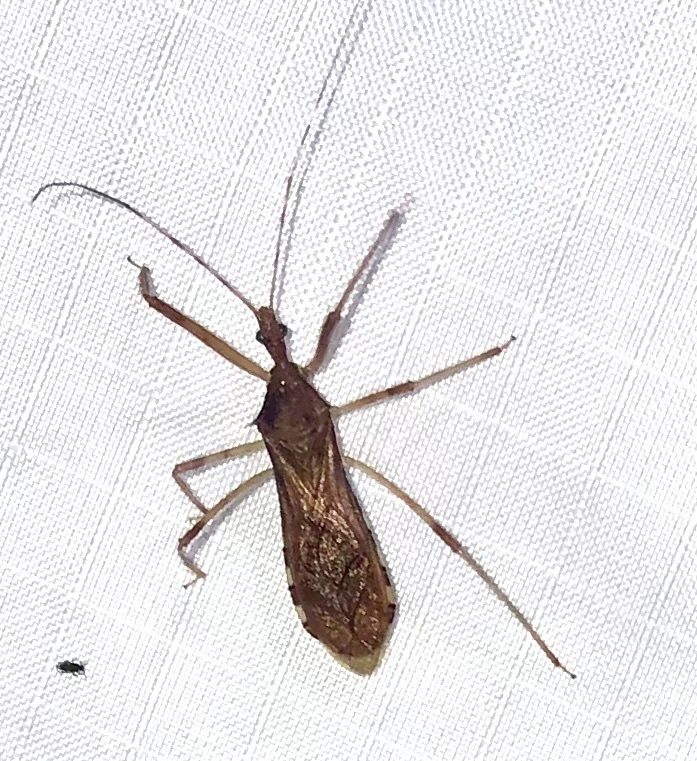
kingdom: Animalia
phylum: Arthropoda
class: Insecta
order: Hemiptera
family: Reduviidae
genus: Rocconota
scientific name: Rocconota annulicornis
